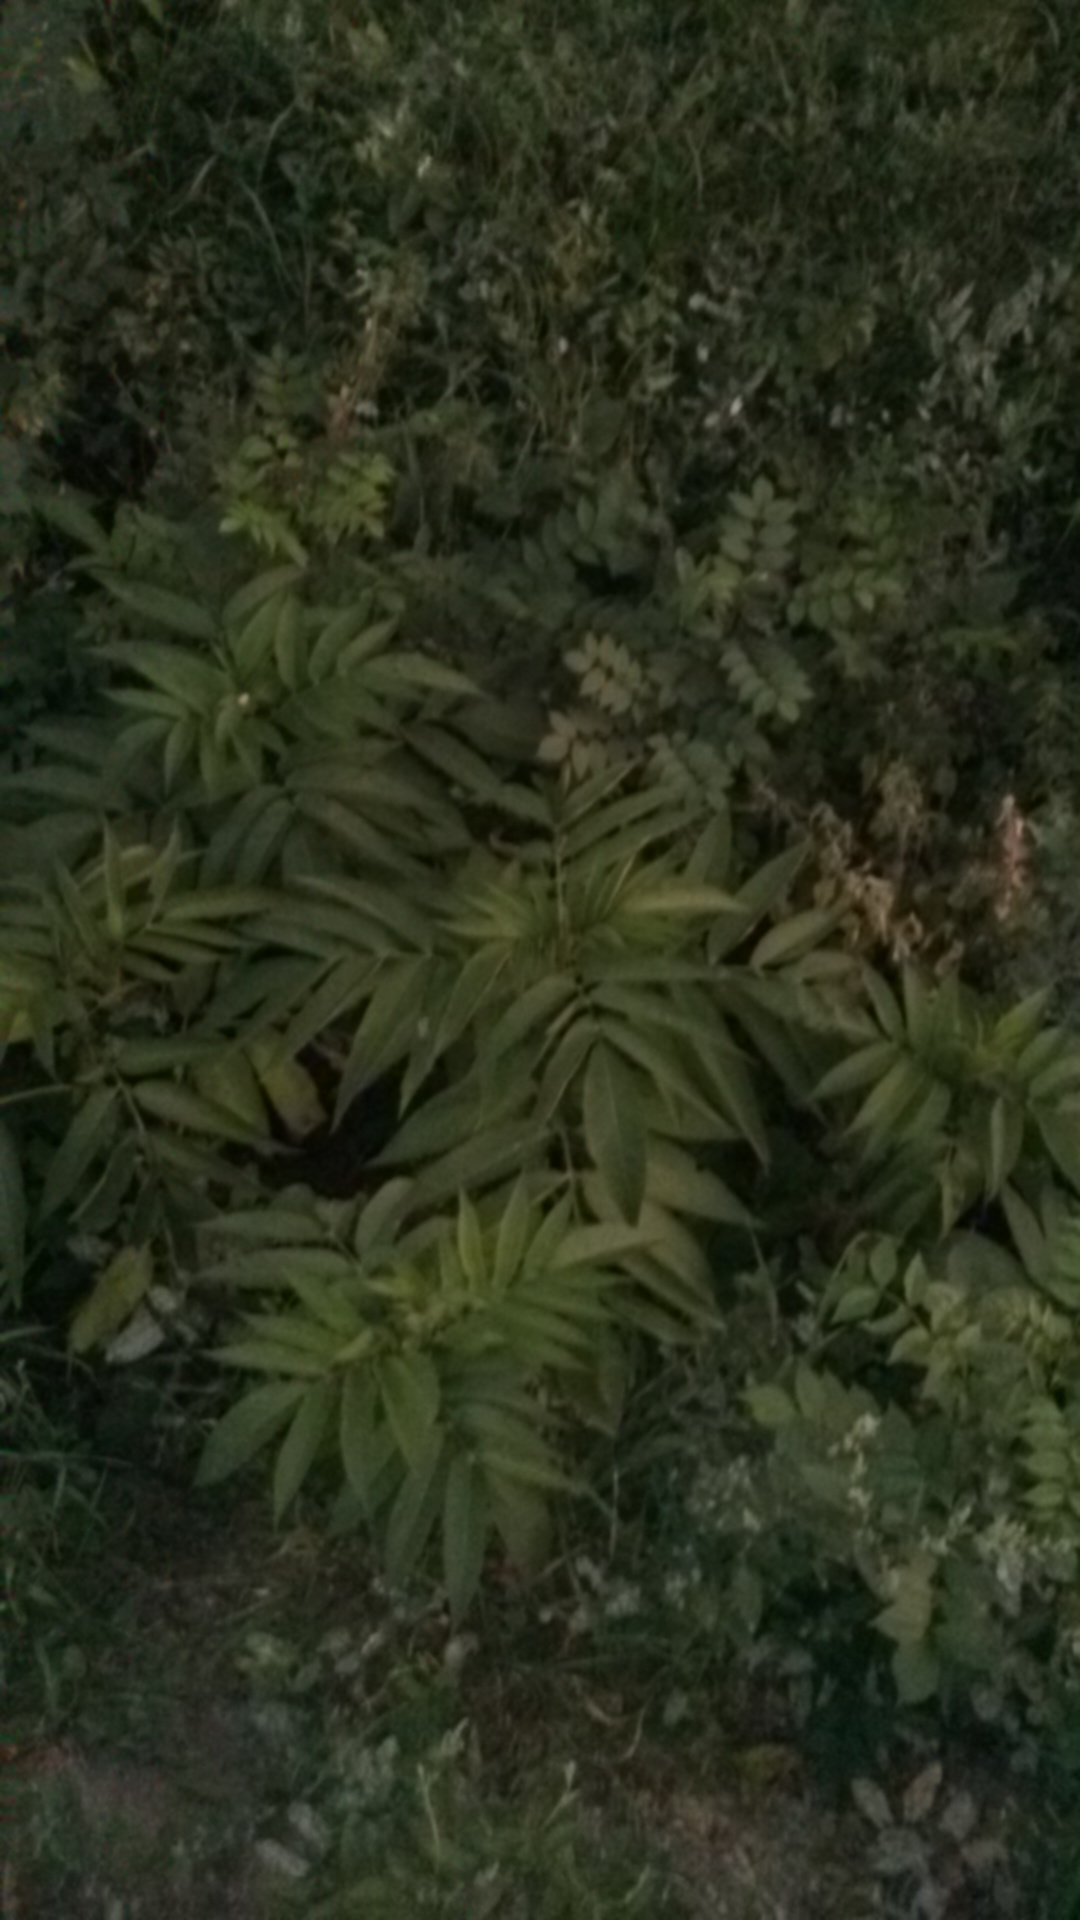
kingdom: Plantae
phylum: Tracheophyta
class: Magnoliopsida
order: Dipsacales
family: Viburnaceae
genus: Sambucus
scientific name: Sambucus ebulus
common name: Dwarf elder
